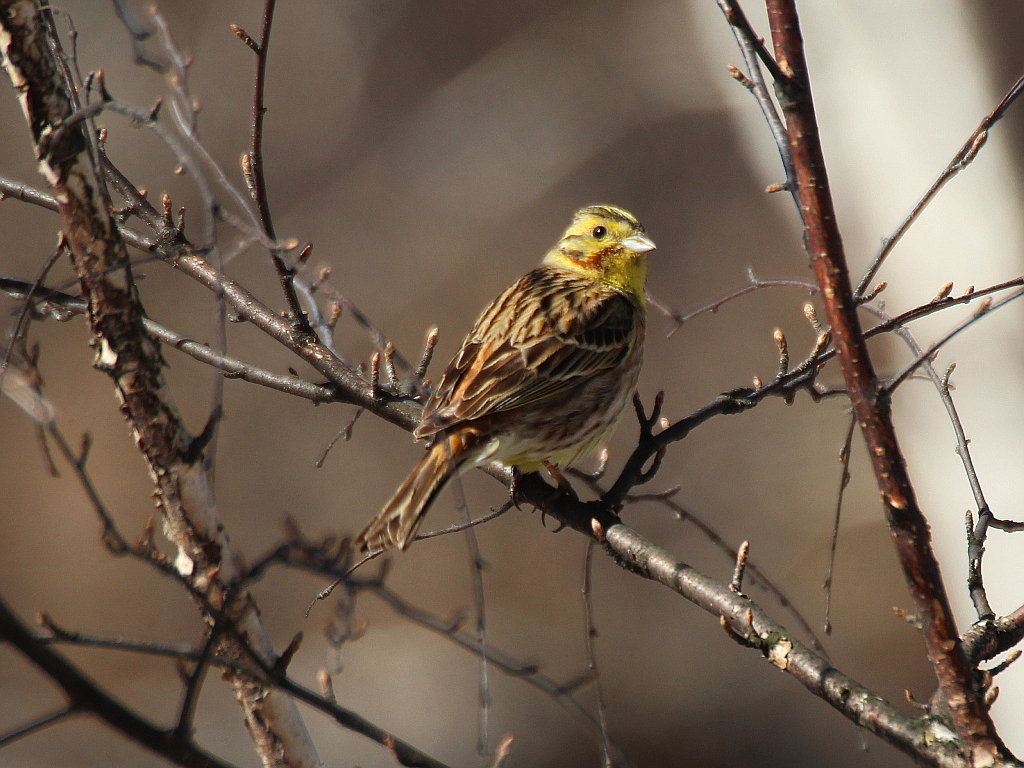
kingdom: Animalia
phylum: Chordata
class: Aves
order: Passeriformes
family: Emberizidae
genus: Emberiza
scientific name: Emberiza
